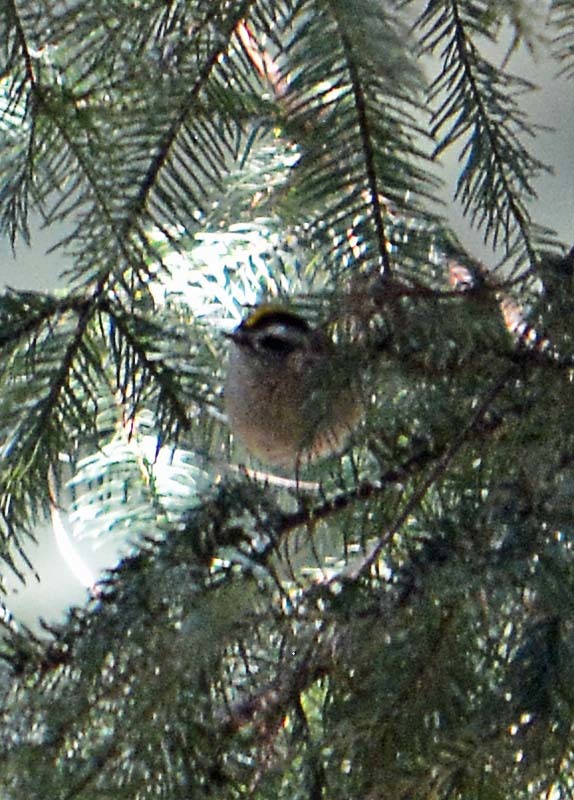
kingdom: Animalia
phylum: Chordata
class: Aves
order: Passeriformes
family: Regulidae
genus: Regulus
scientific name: Regulus satrapa
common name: Golden-crowned kinglet
